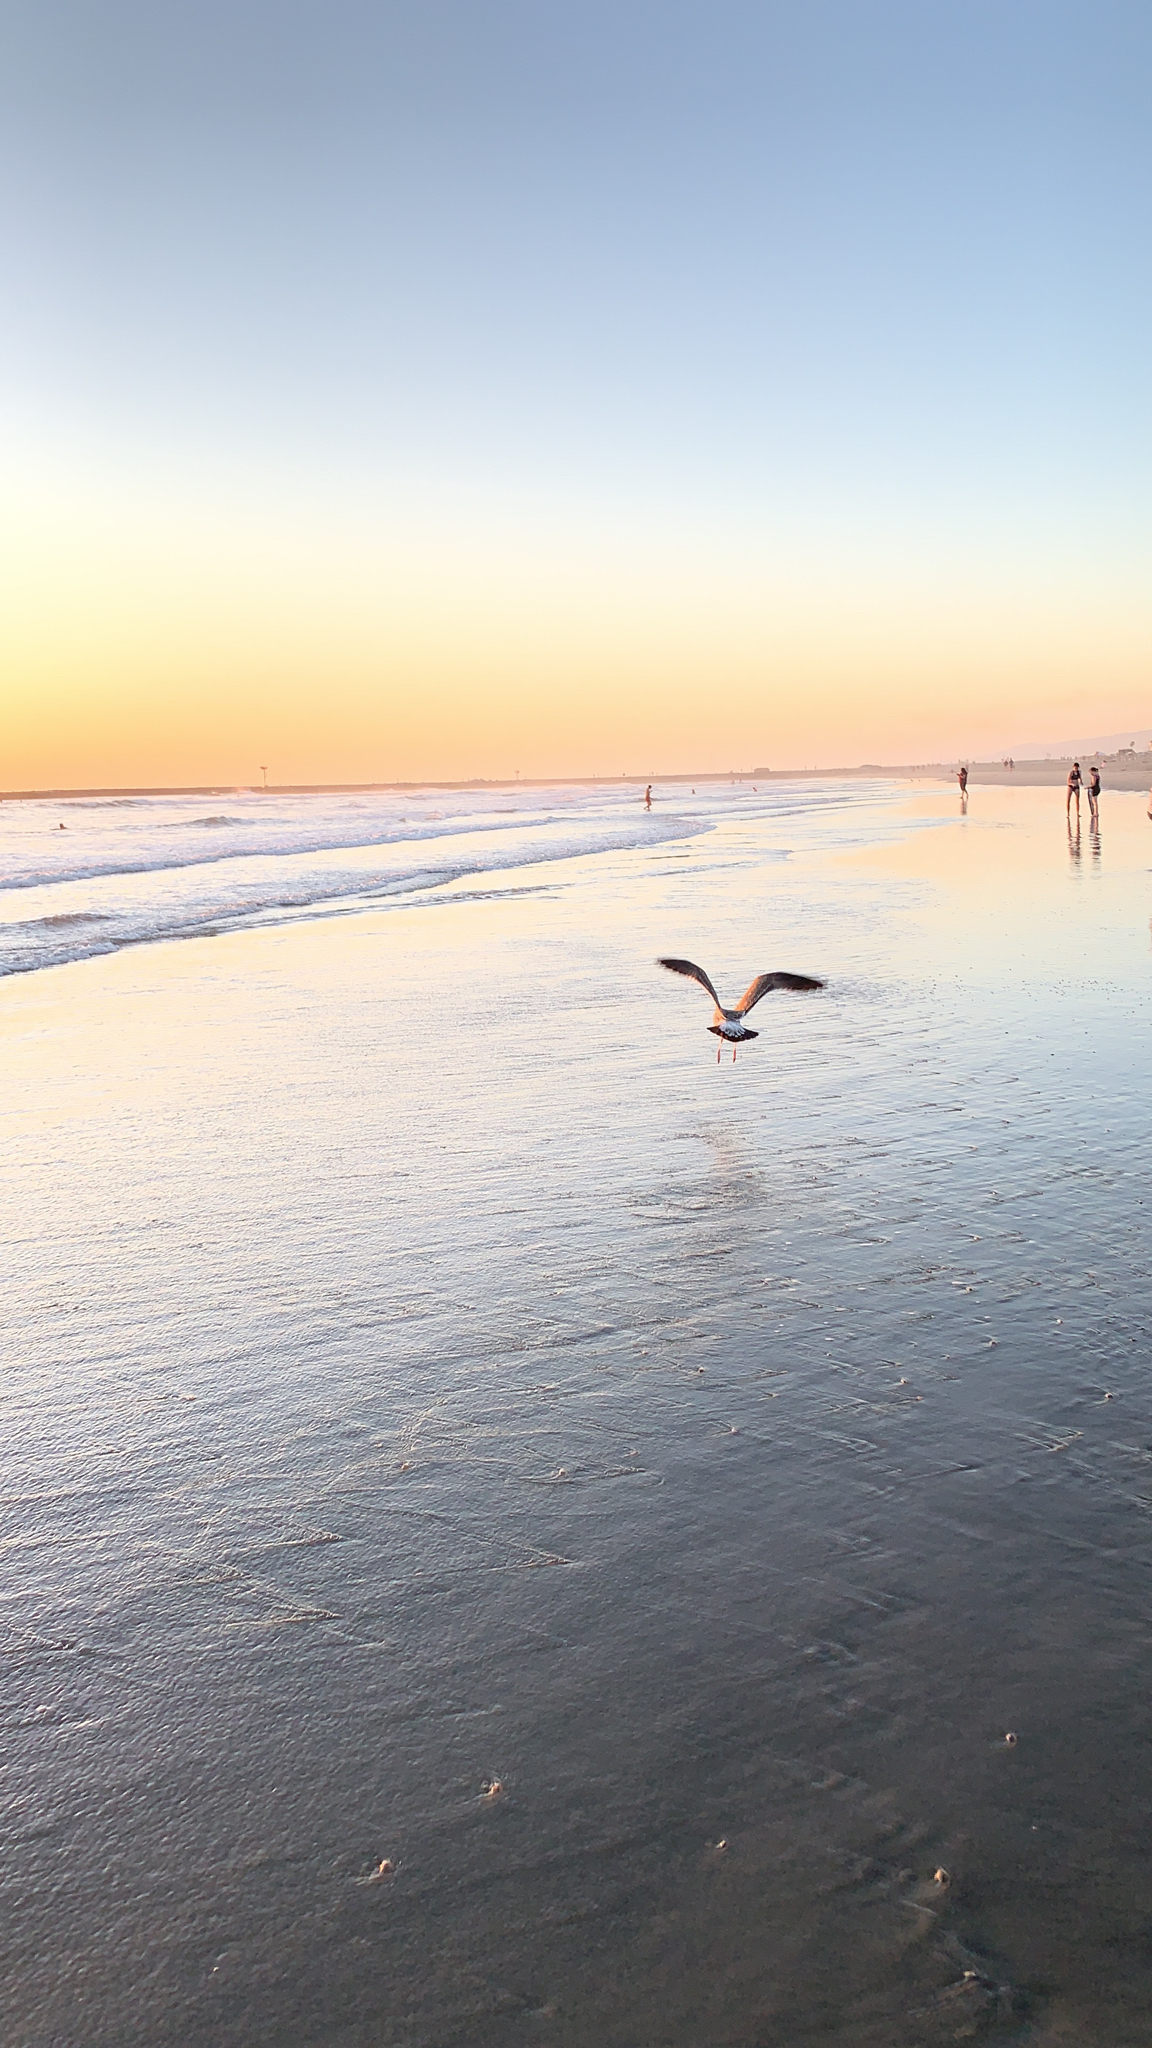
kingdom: Animalia
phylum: Chordata
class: Aves
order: Charadriiformes
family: Laridae
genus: Larus
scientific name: Larus occidentalis
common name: Western gull
